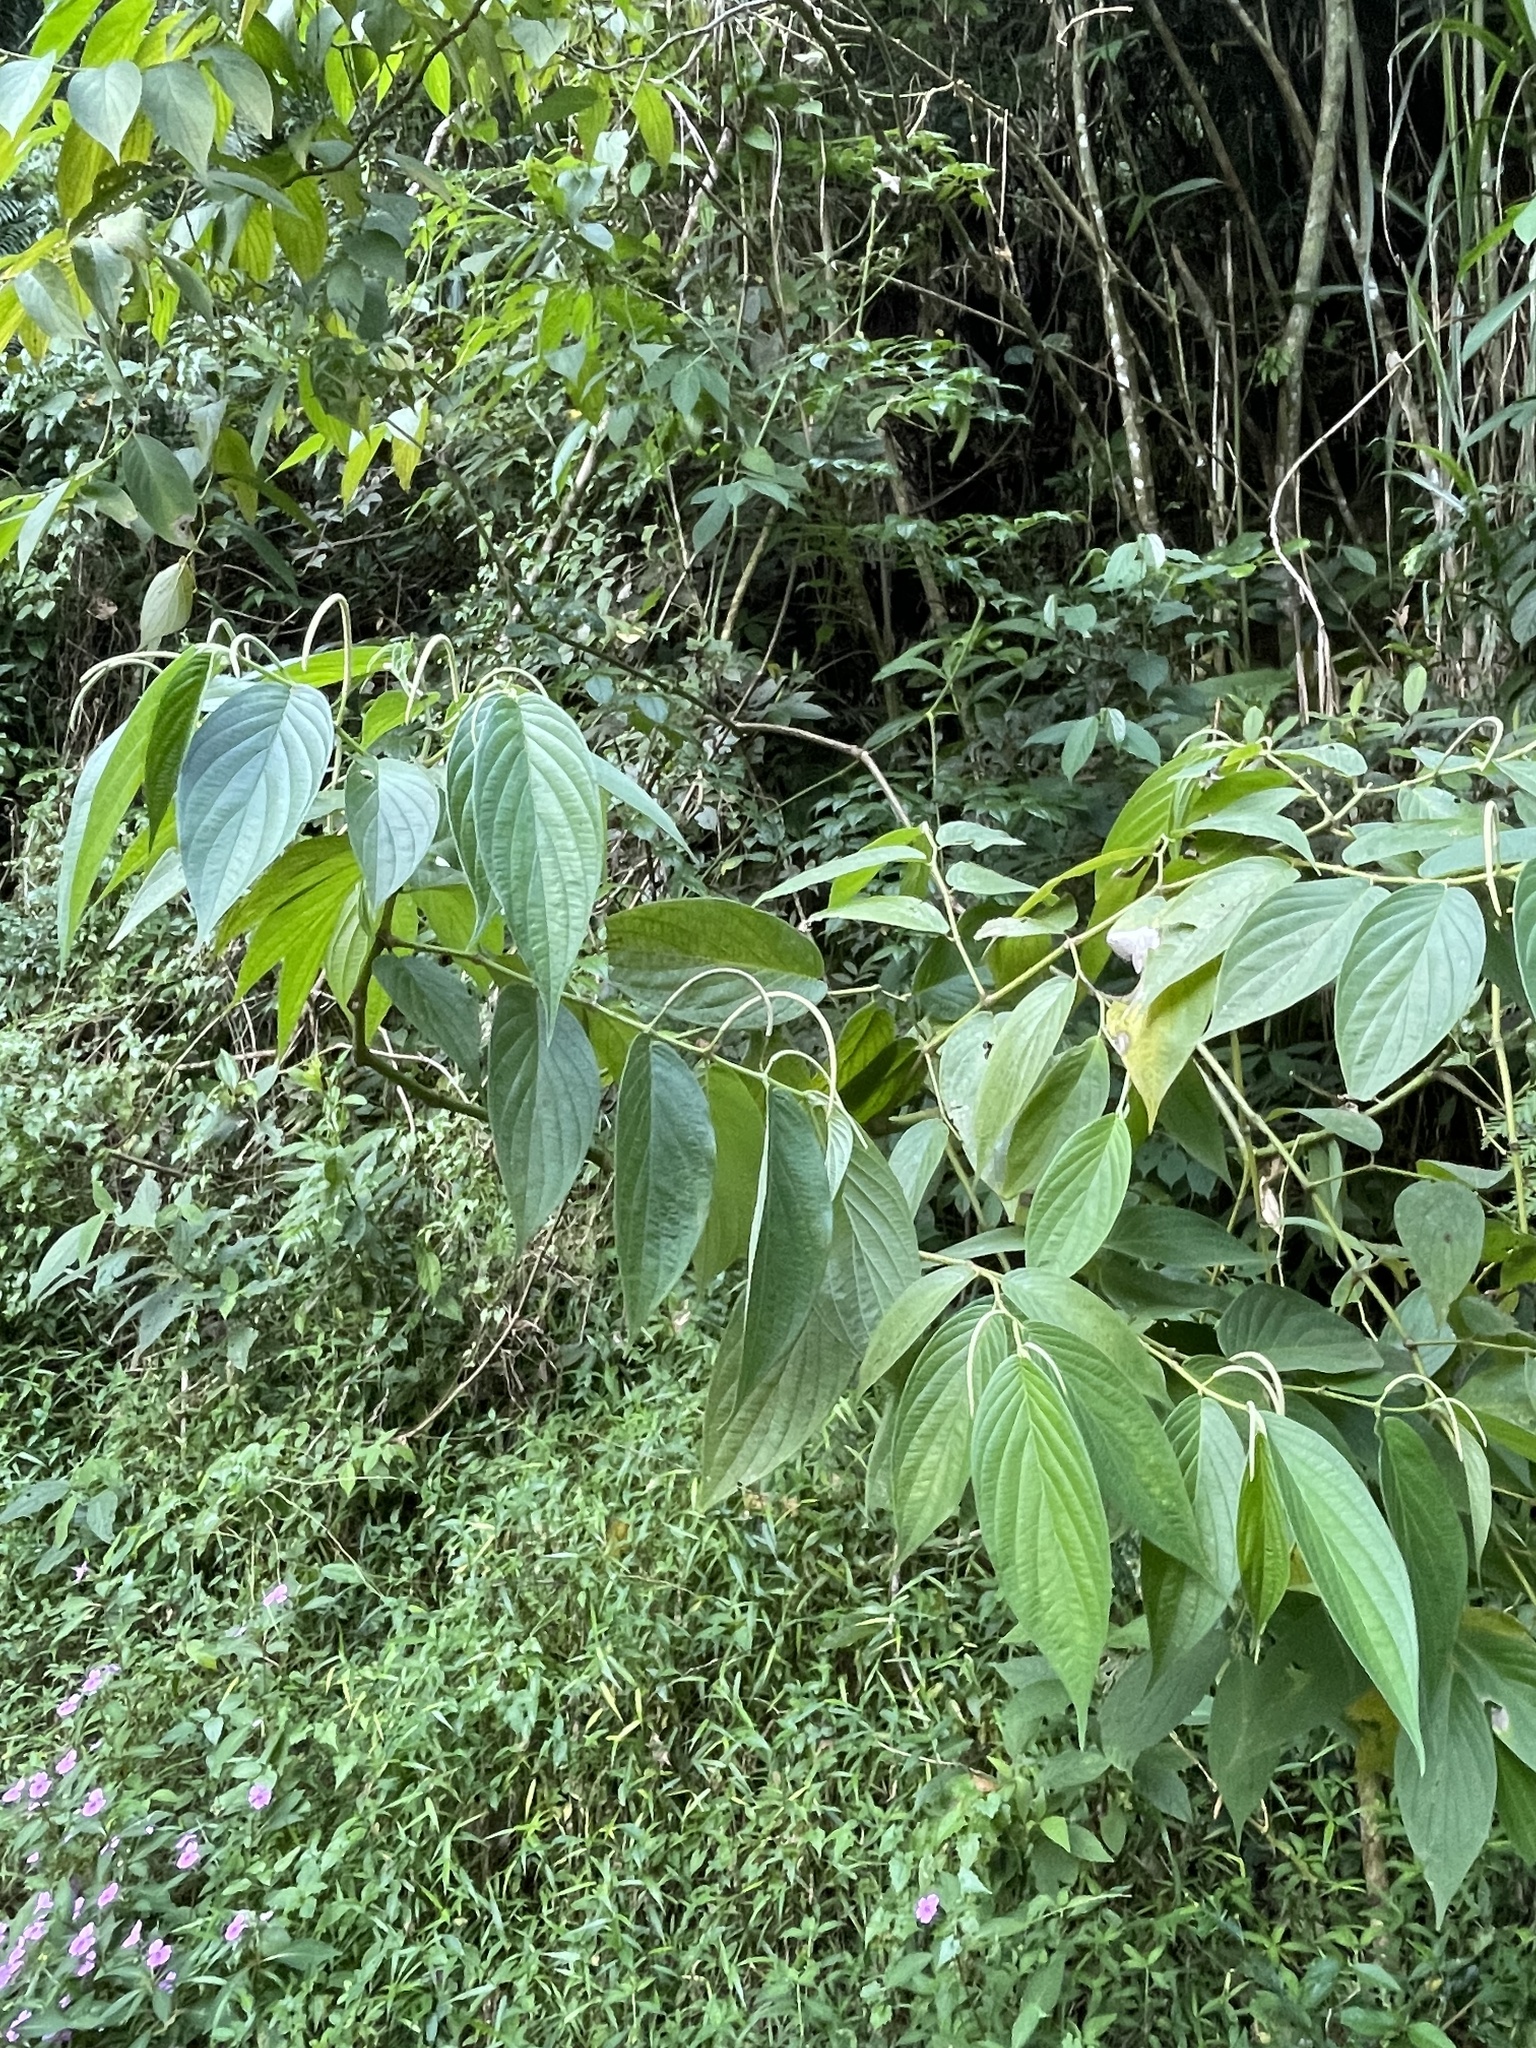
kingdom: Plantae
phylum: Tracheophyta
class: Magnoliopsida
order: Piperales
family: Piperaceae
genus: Piper
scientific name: Piper aduncum
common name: Spiked pepper
